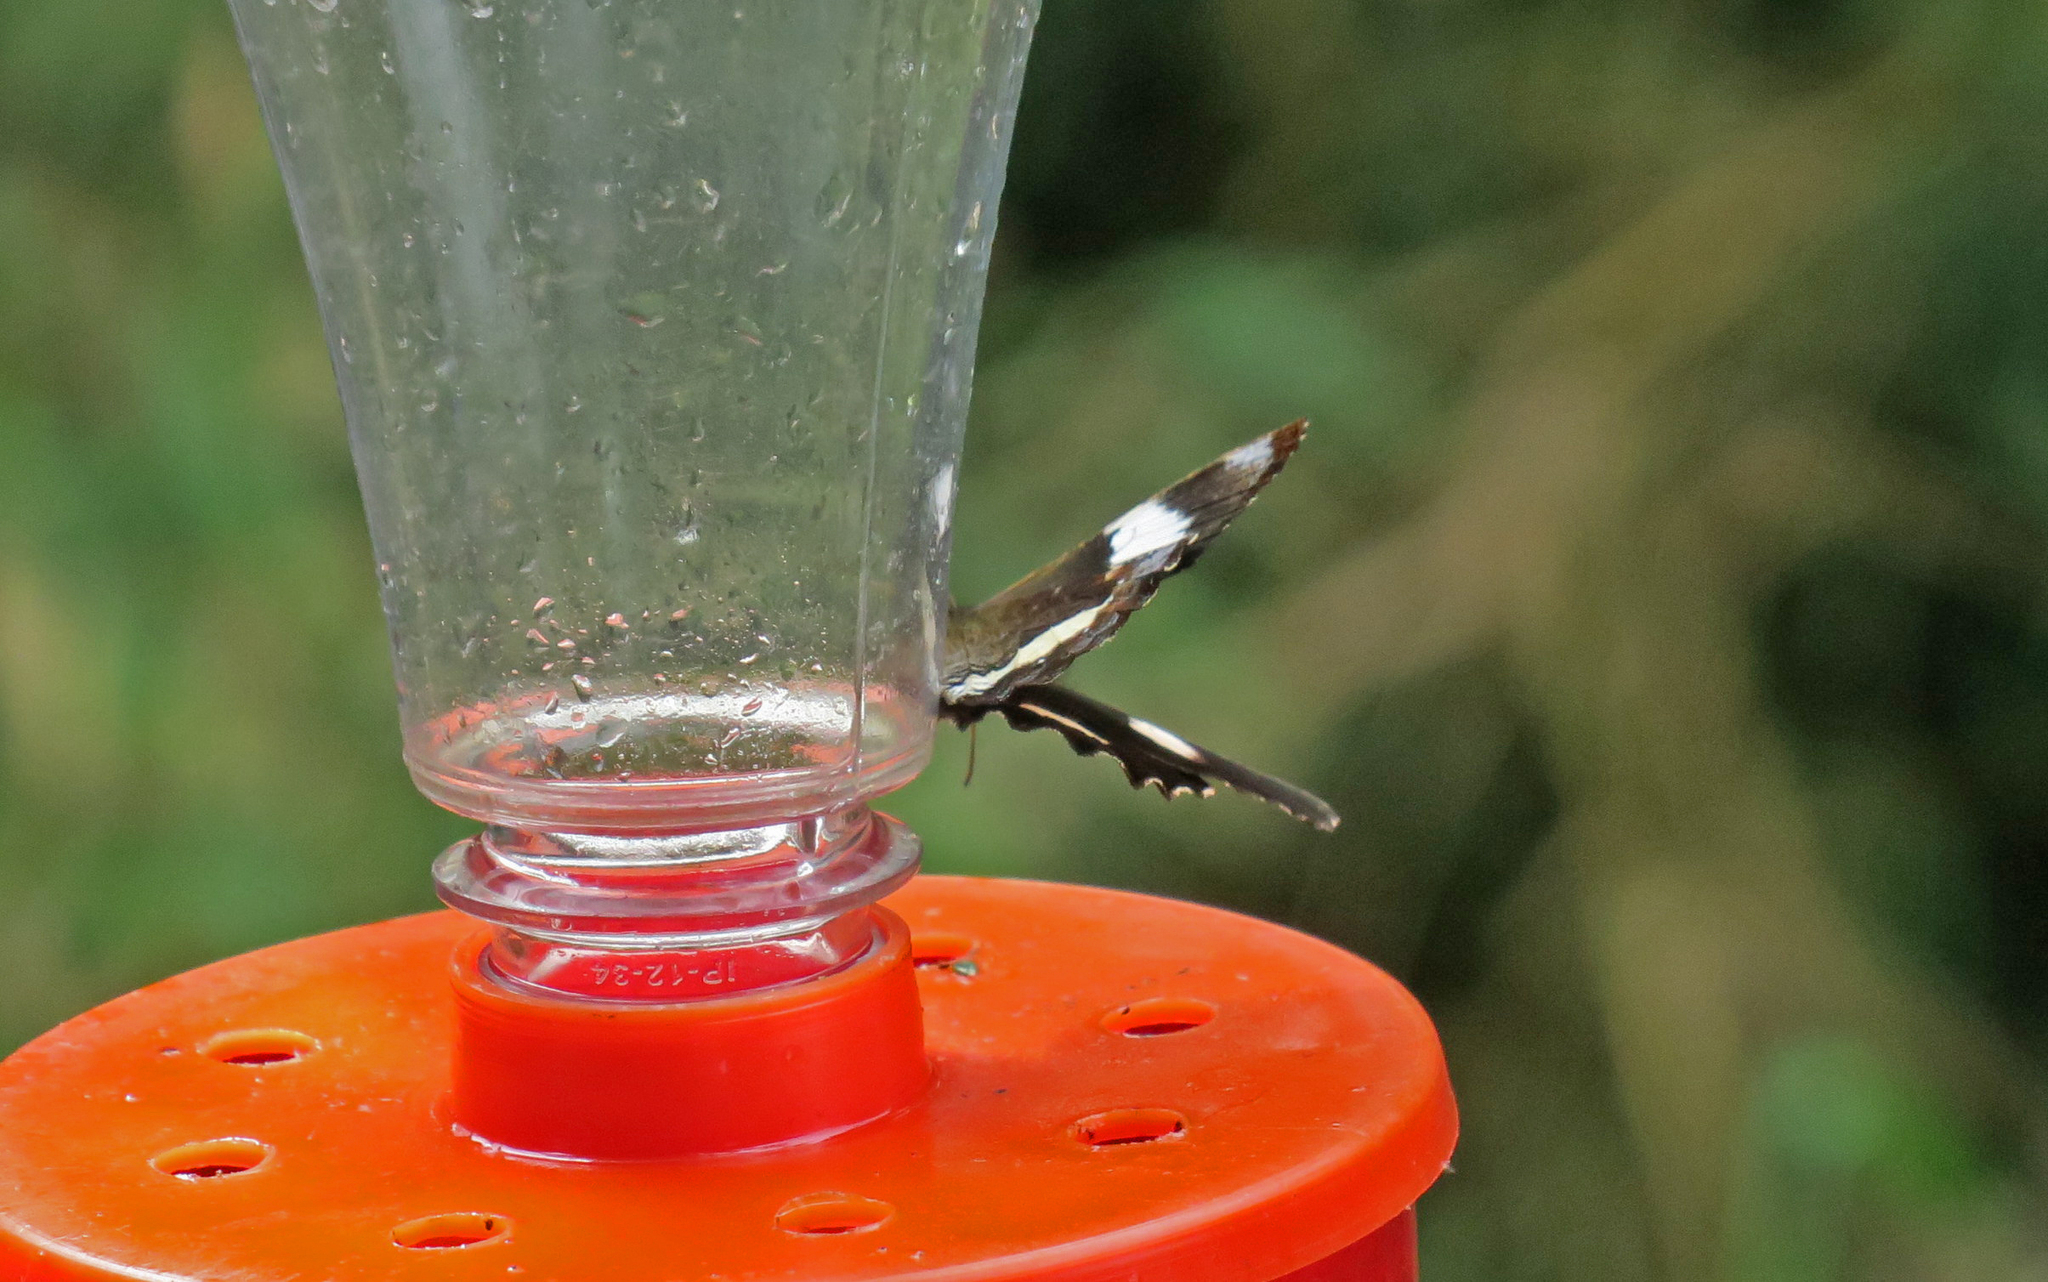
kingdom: Animalia
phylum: Arthropoda
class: Insecta
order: Lepidoptera
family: Nymphalidae
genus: Pedaliodes
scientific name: Pedaliodes phaedra
